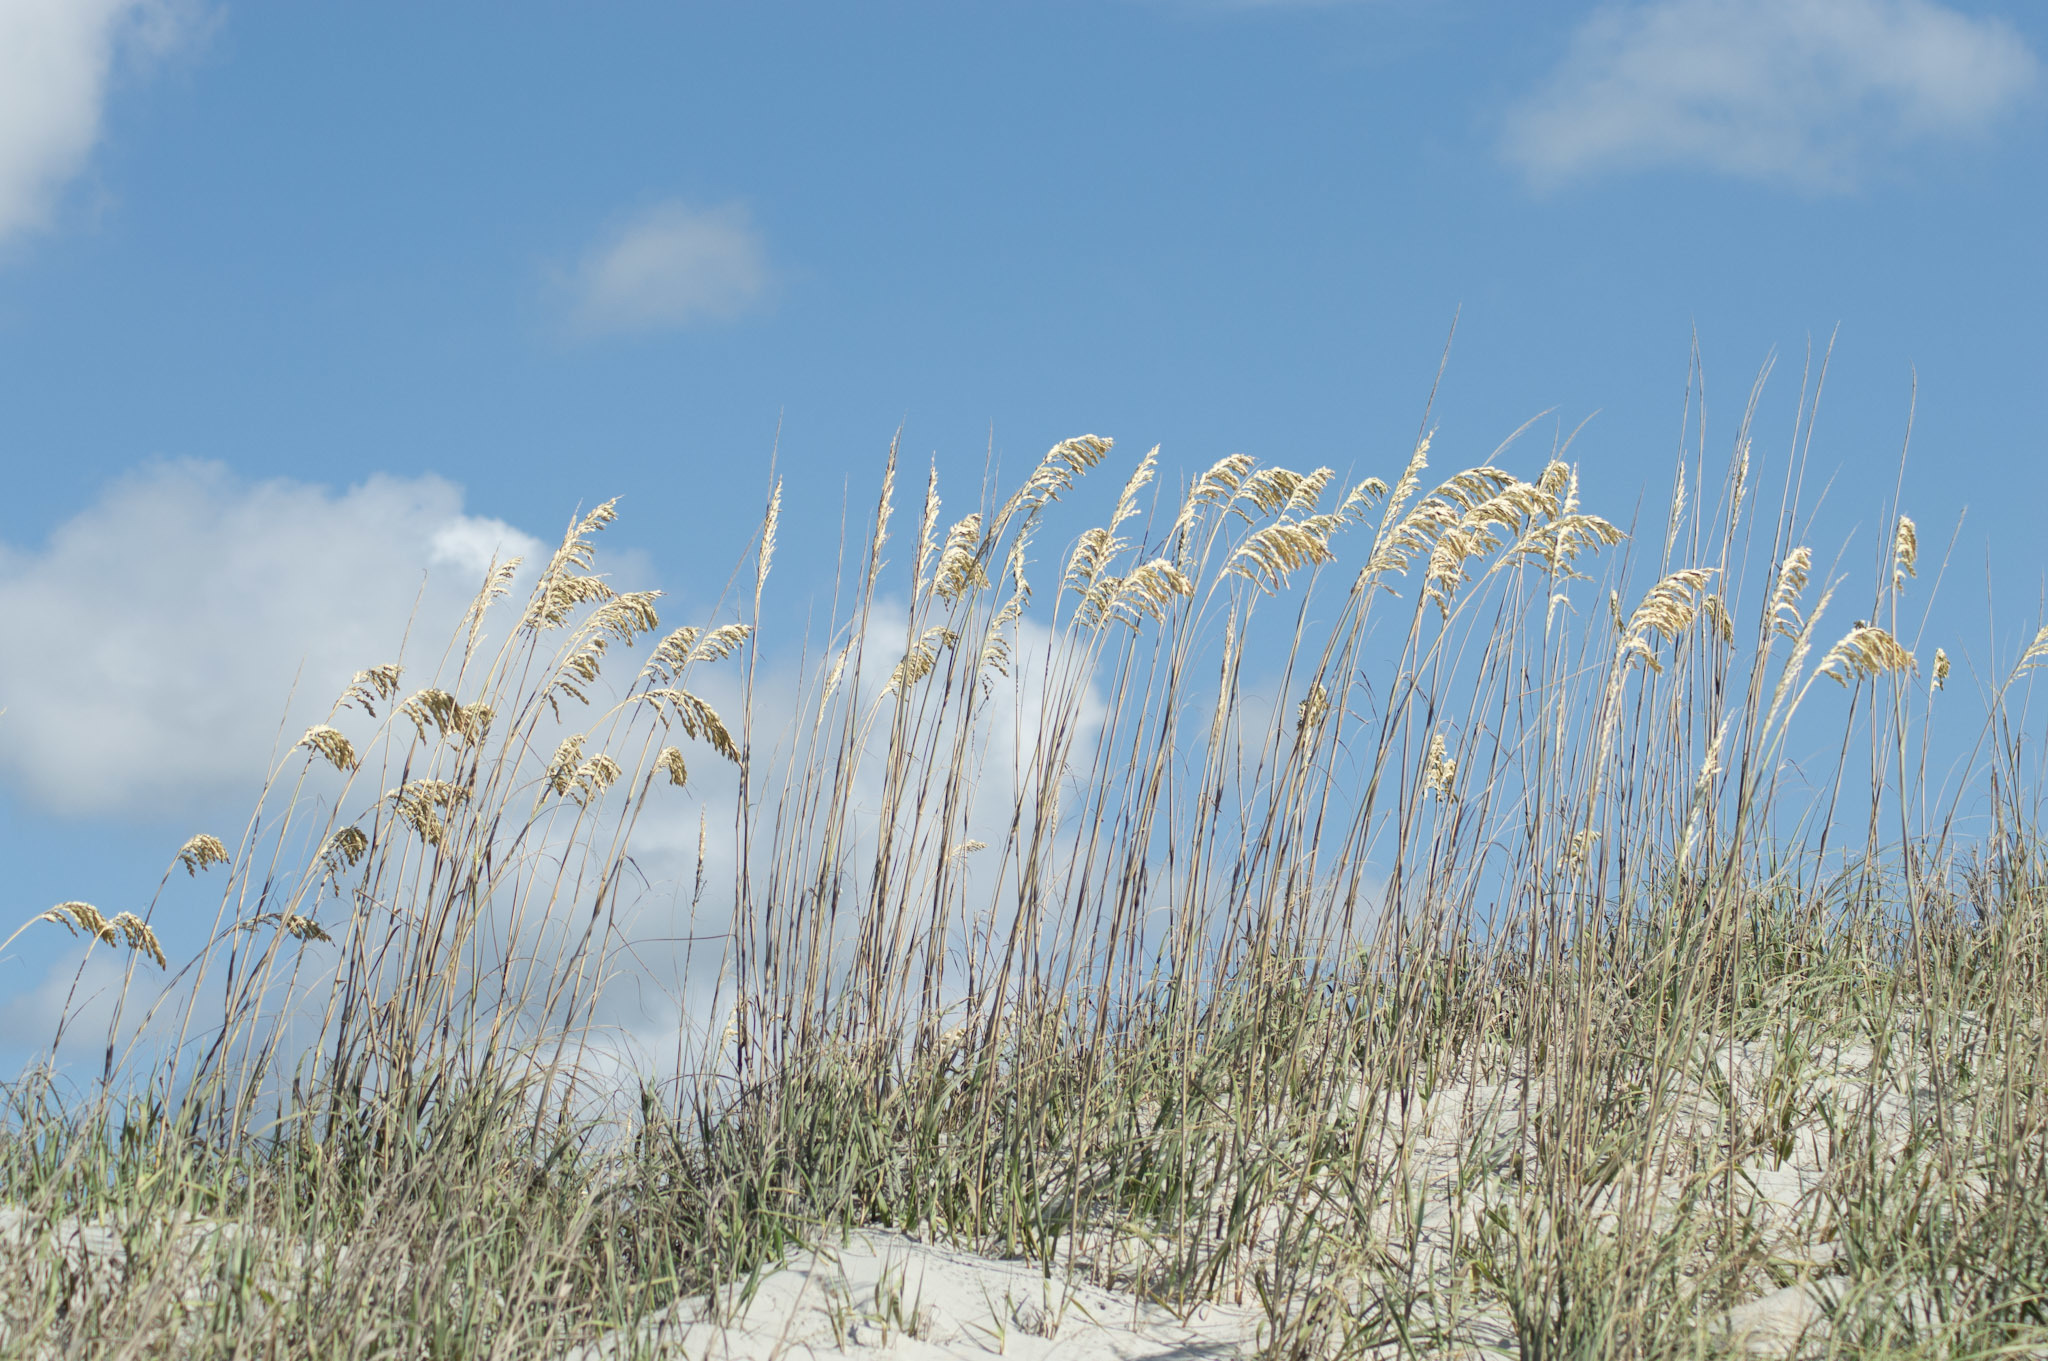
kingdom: Plantae
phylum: Tracheophyta
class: Liliopsida
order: Poales
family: Poaceae
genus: Uniola
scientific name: Uniola paniculata
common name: Seaside-oats
